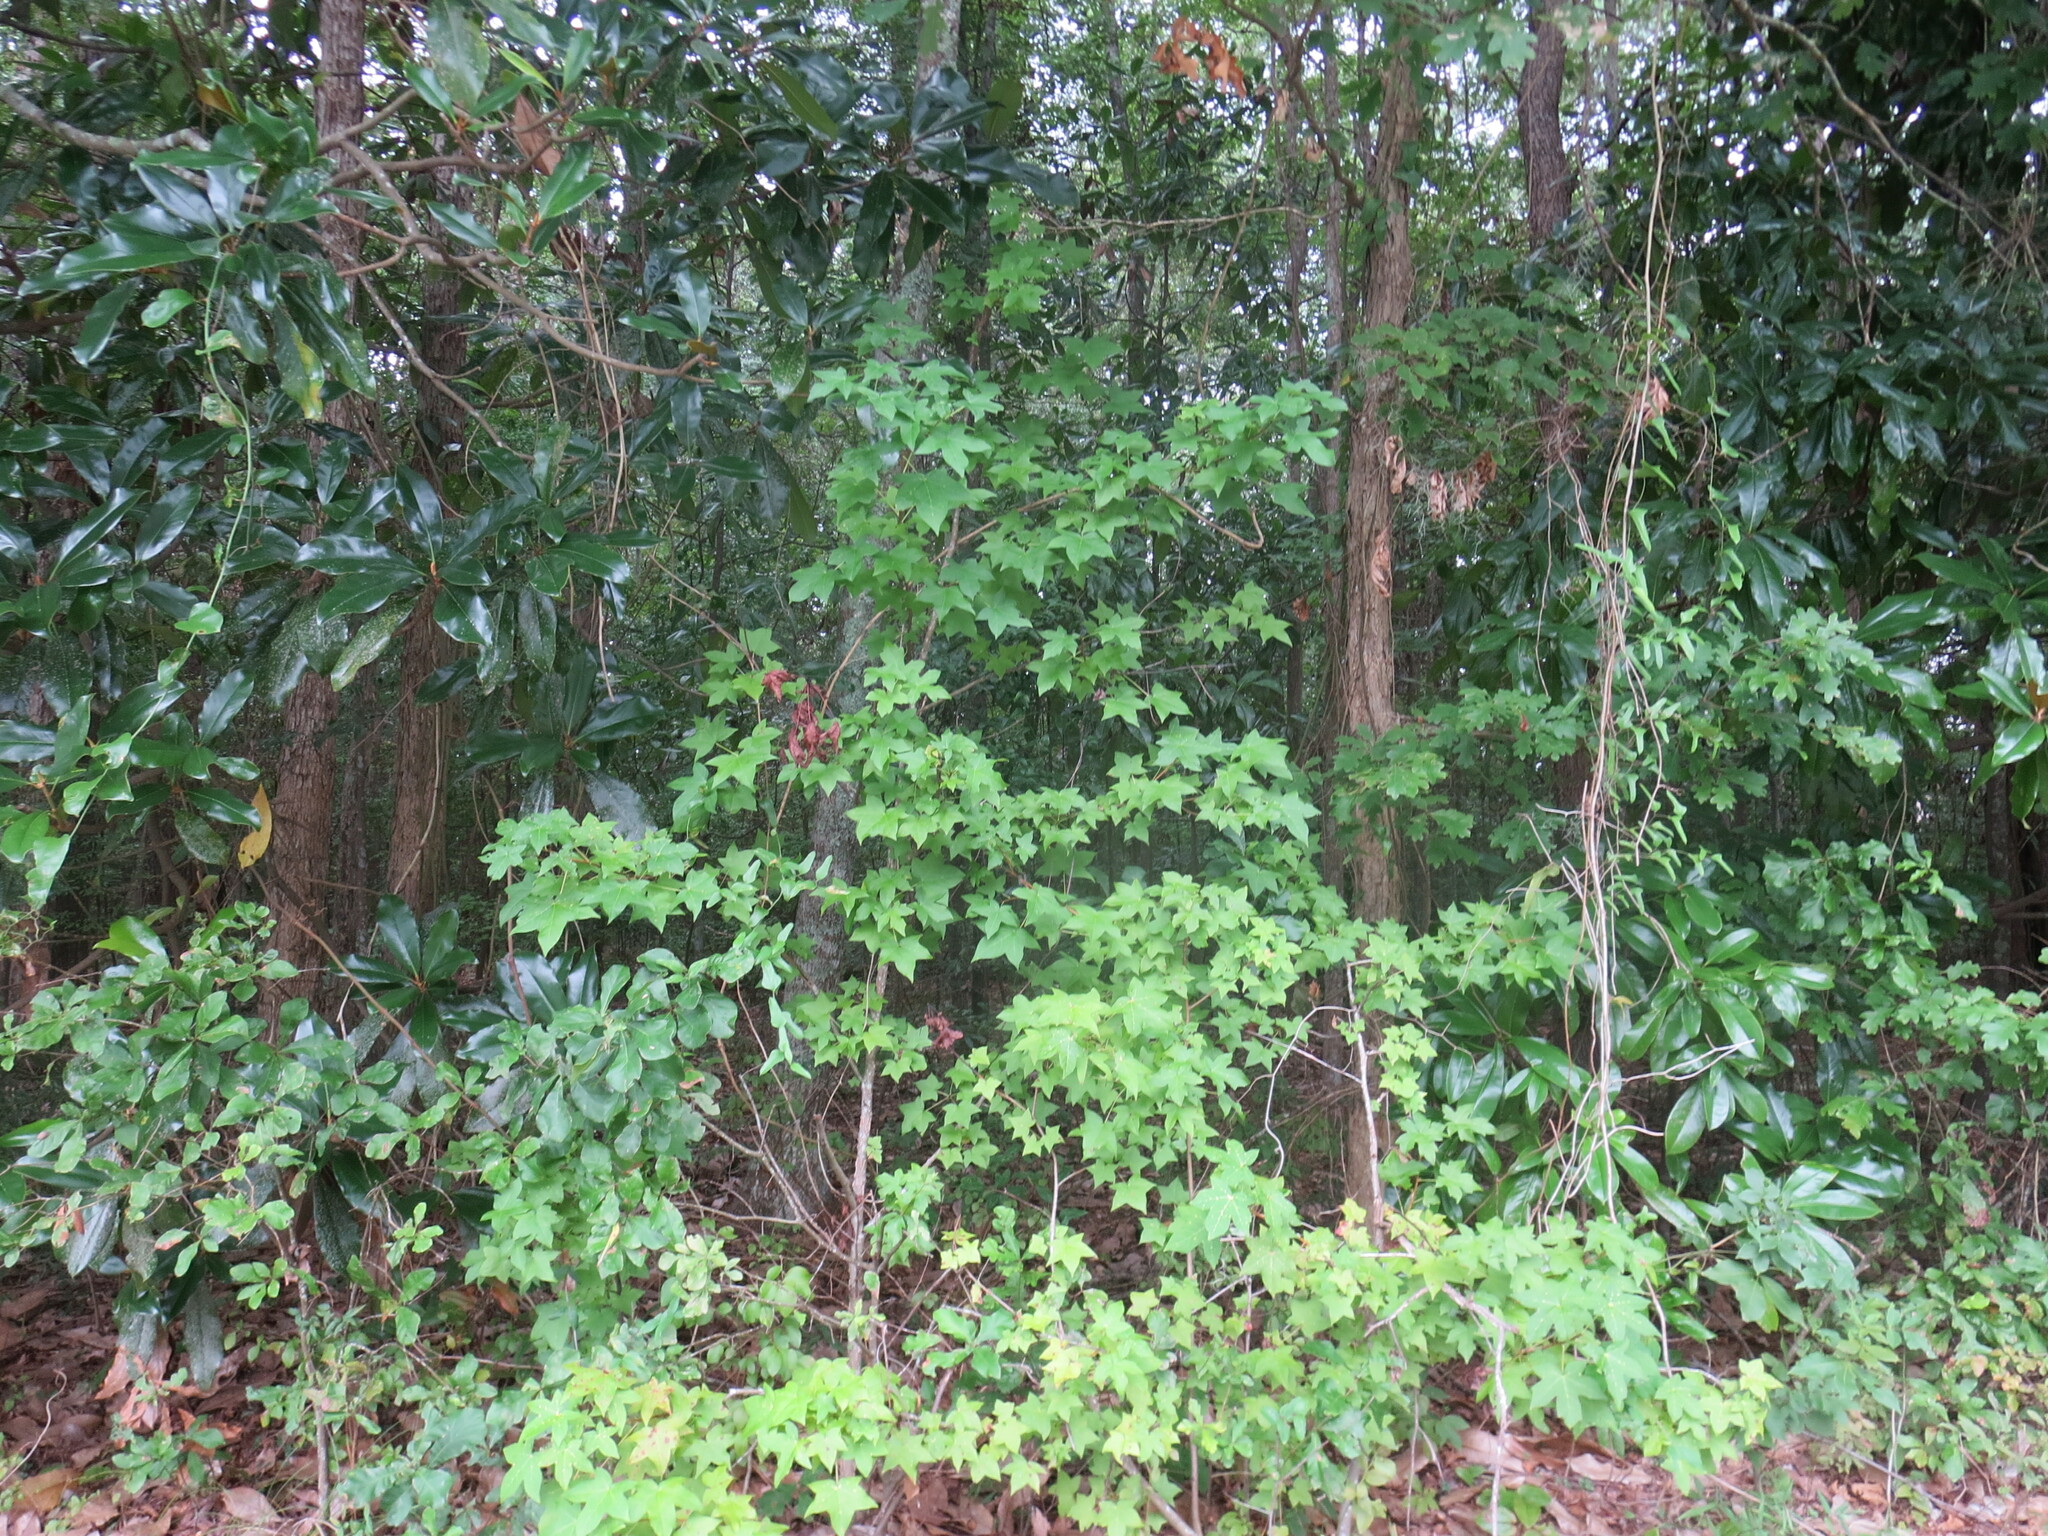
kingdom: Plantae
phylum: Tracheophyta
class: Magnoliopsida
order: Saxifragales
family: Altingiaceae
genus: Liquidambar
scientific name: Liquidambar styraciflua
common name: Sweet gum
